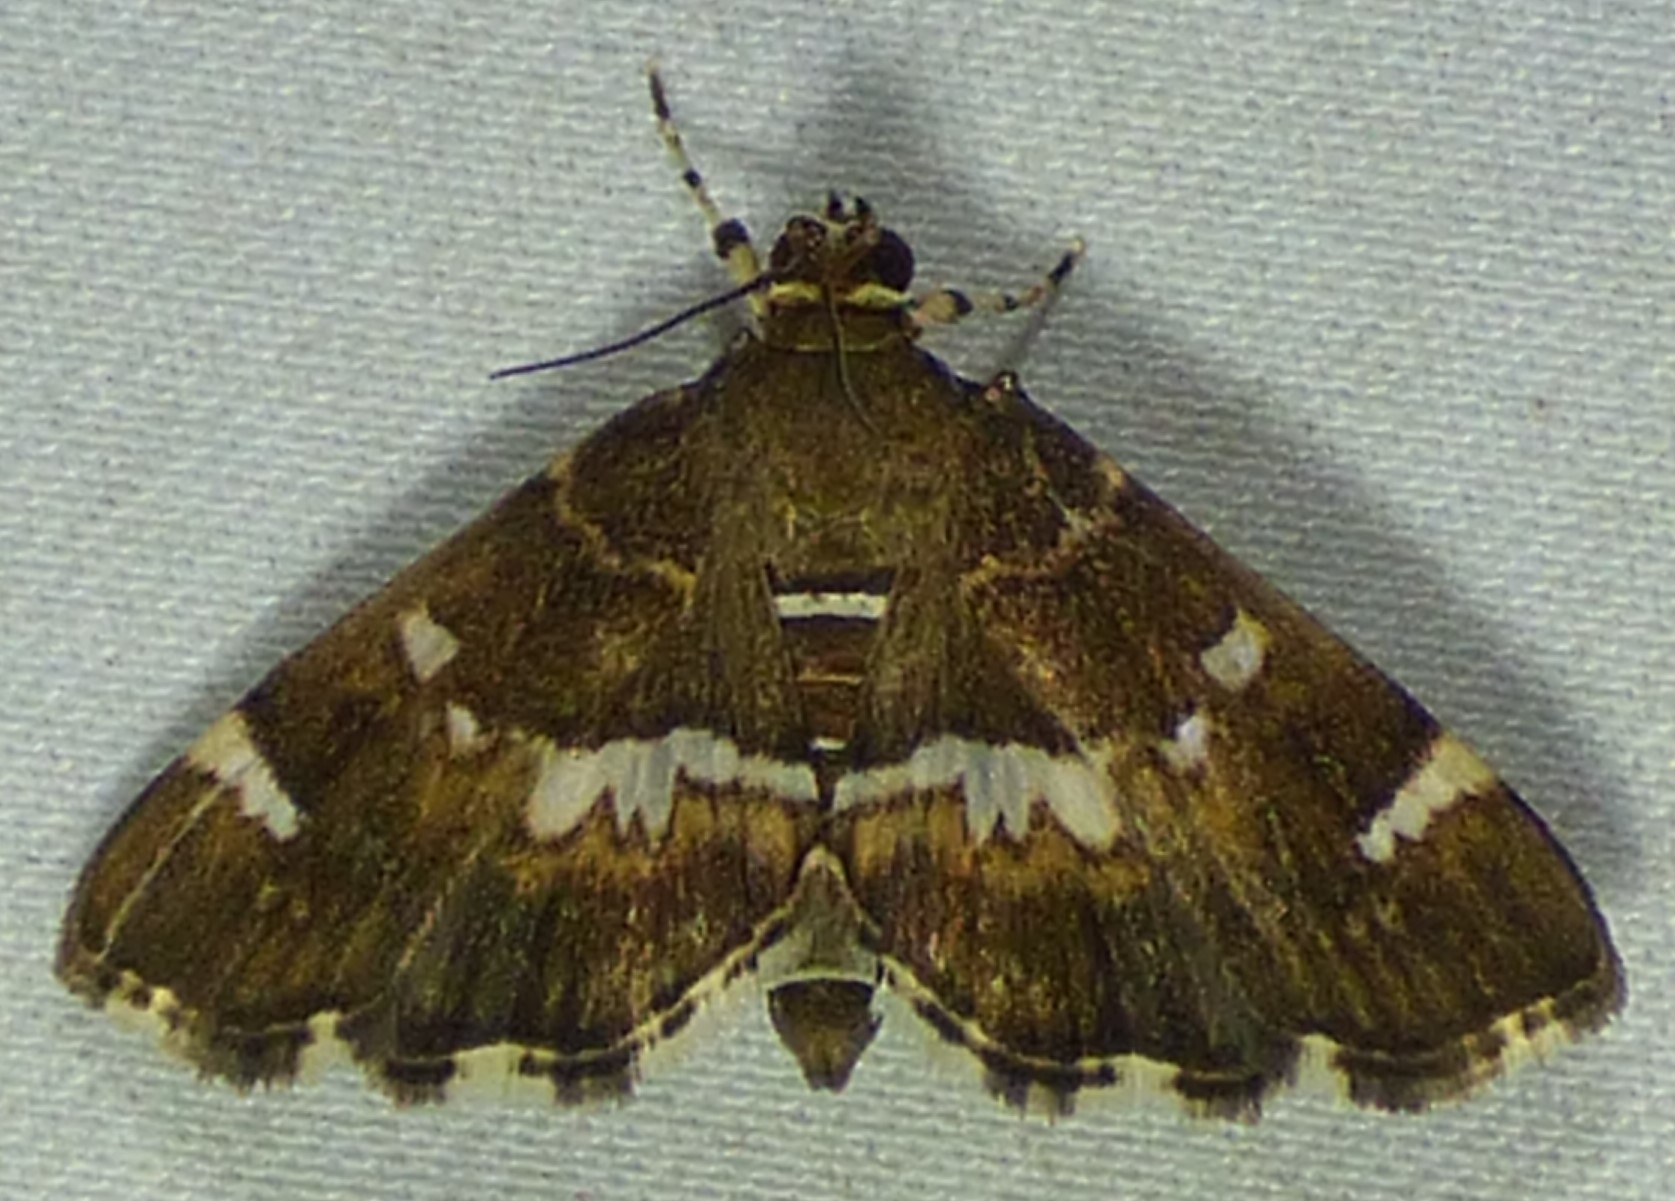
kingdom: Animalia
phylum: Arthropoda
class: Insecta
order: Lepidoptera
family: Crambidae
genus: Hymenia
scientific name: Hymenia perspectalis
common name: Spotted beet webworm
